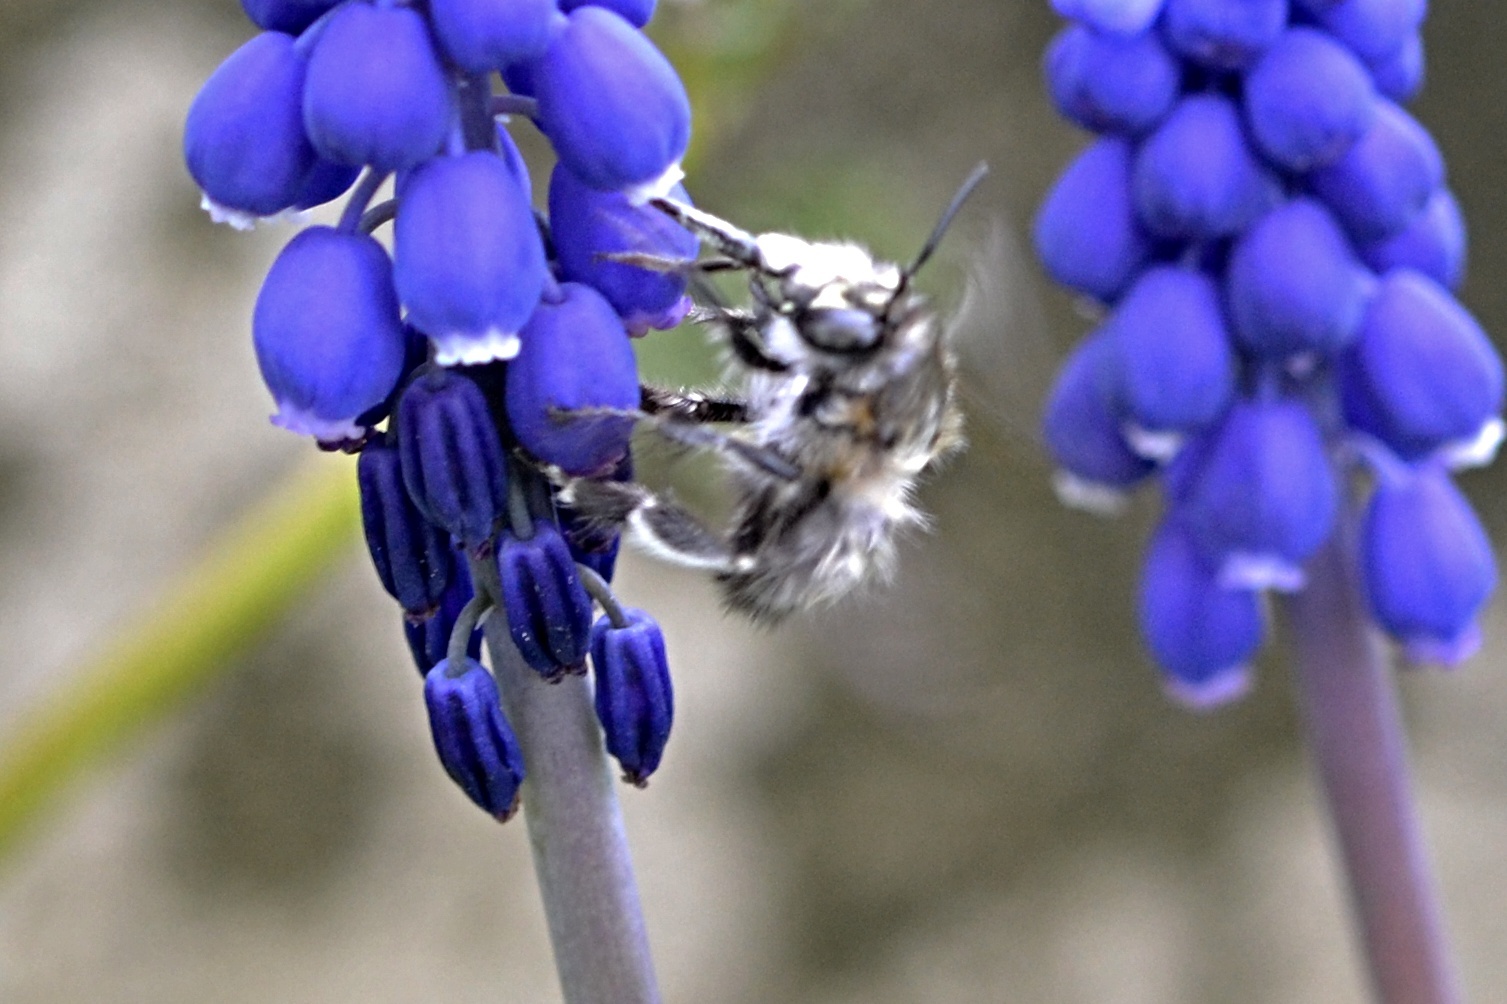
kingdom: Animalia
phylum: Arthropoda
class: Insecta
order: Hymenoptera
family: Apidae
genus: Anthophora
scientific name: Anthophora plumipes
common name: Hairy-footed flower bee
